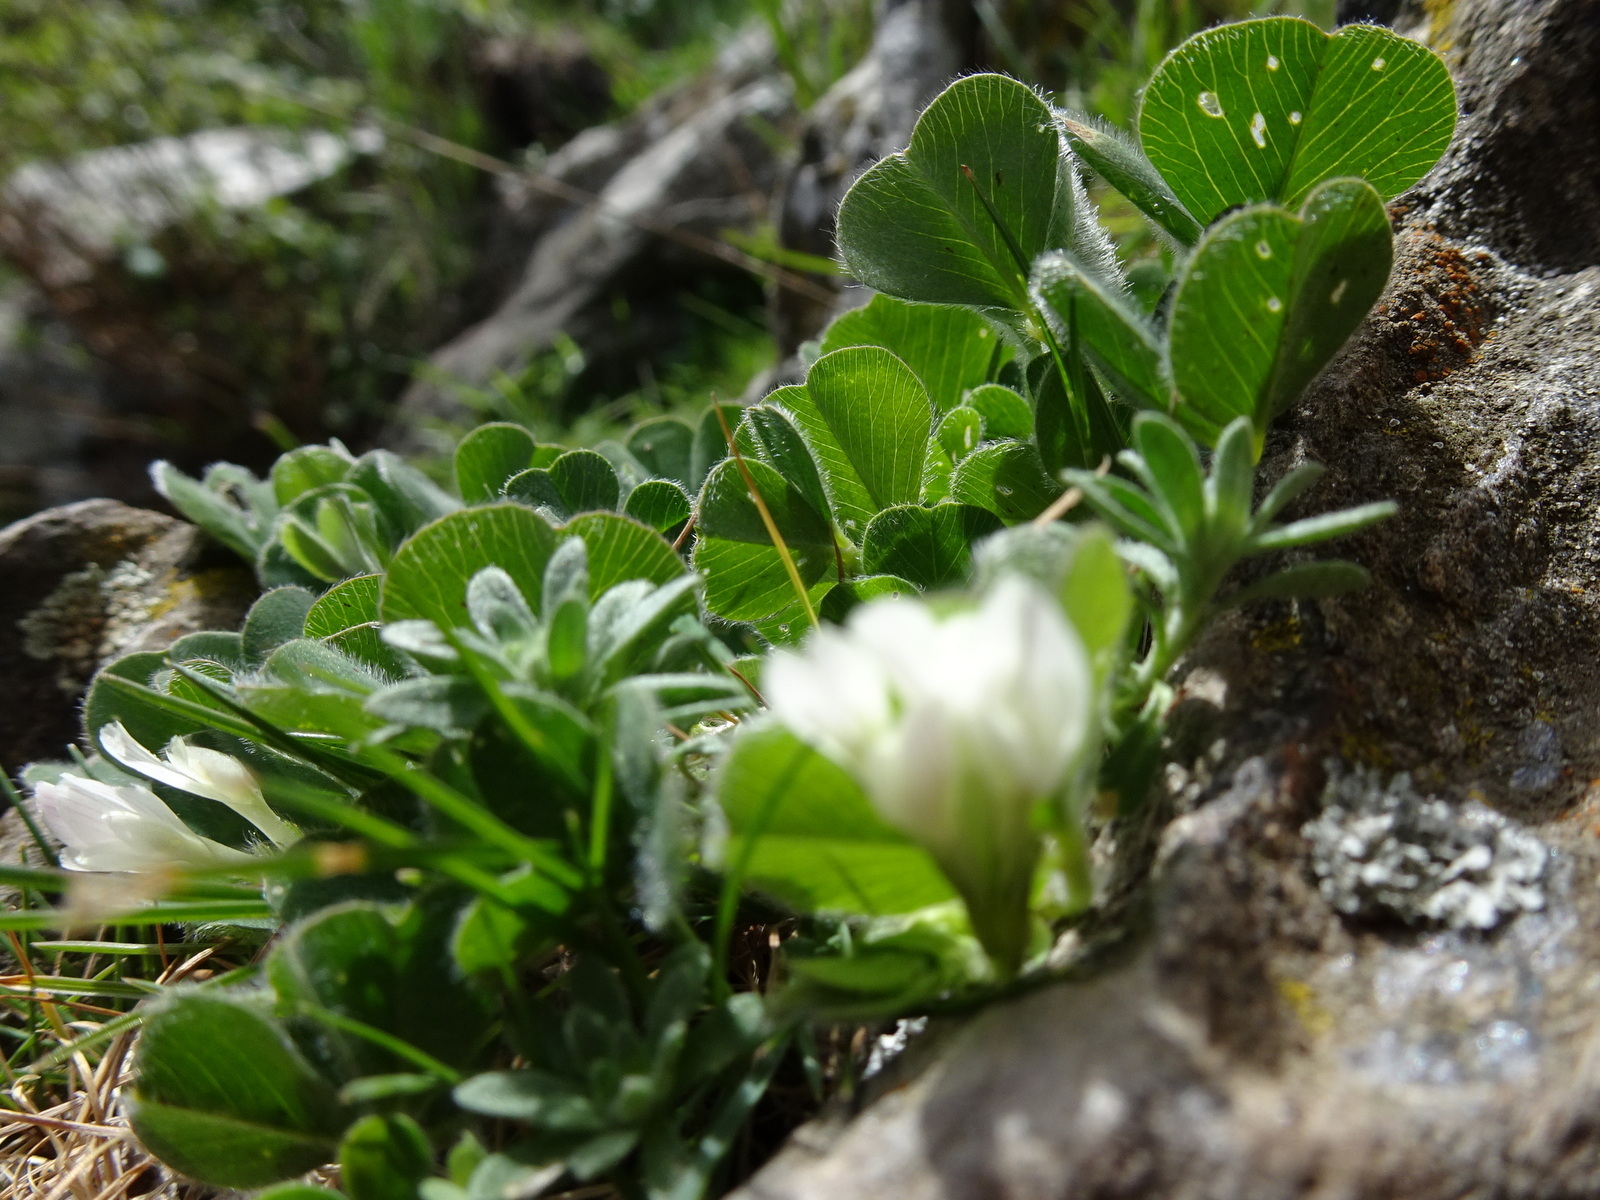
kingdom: Plantae
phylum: Tracheophyta
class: Magnoliopsida
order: Fabales
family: Fabaceae
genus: Trifolium
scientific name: Trifolium subterraneum
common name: Subterranean clover
